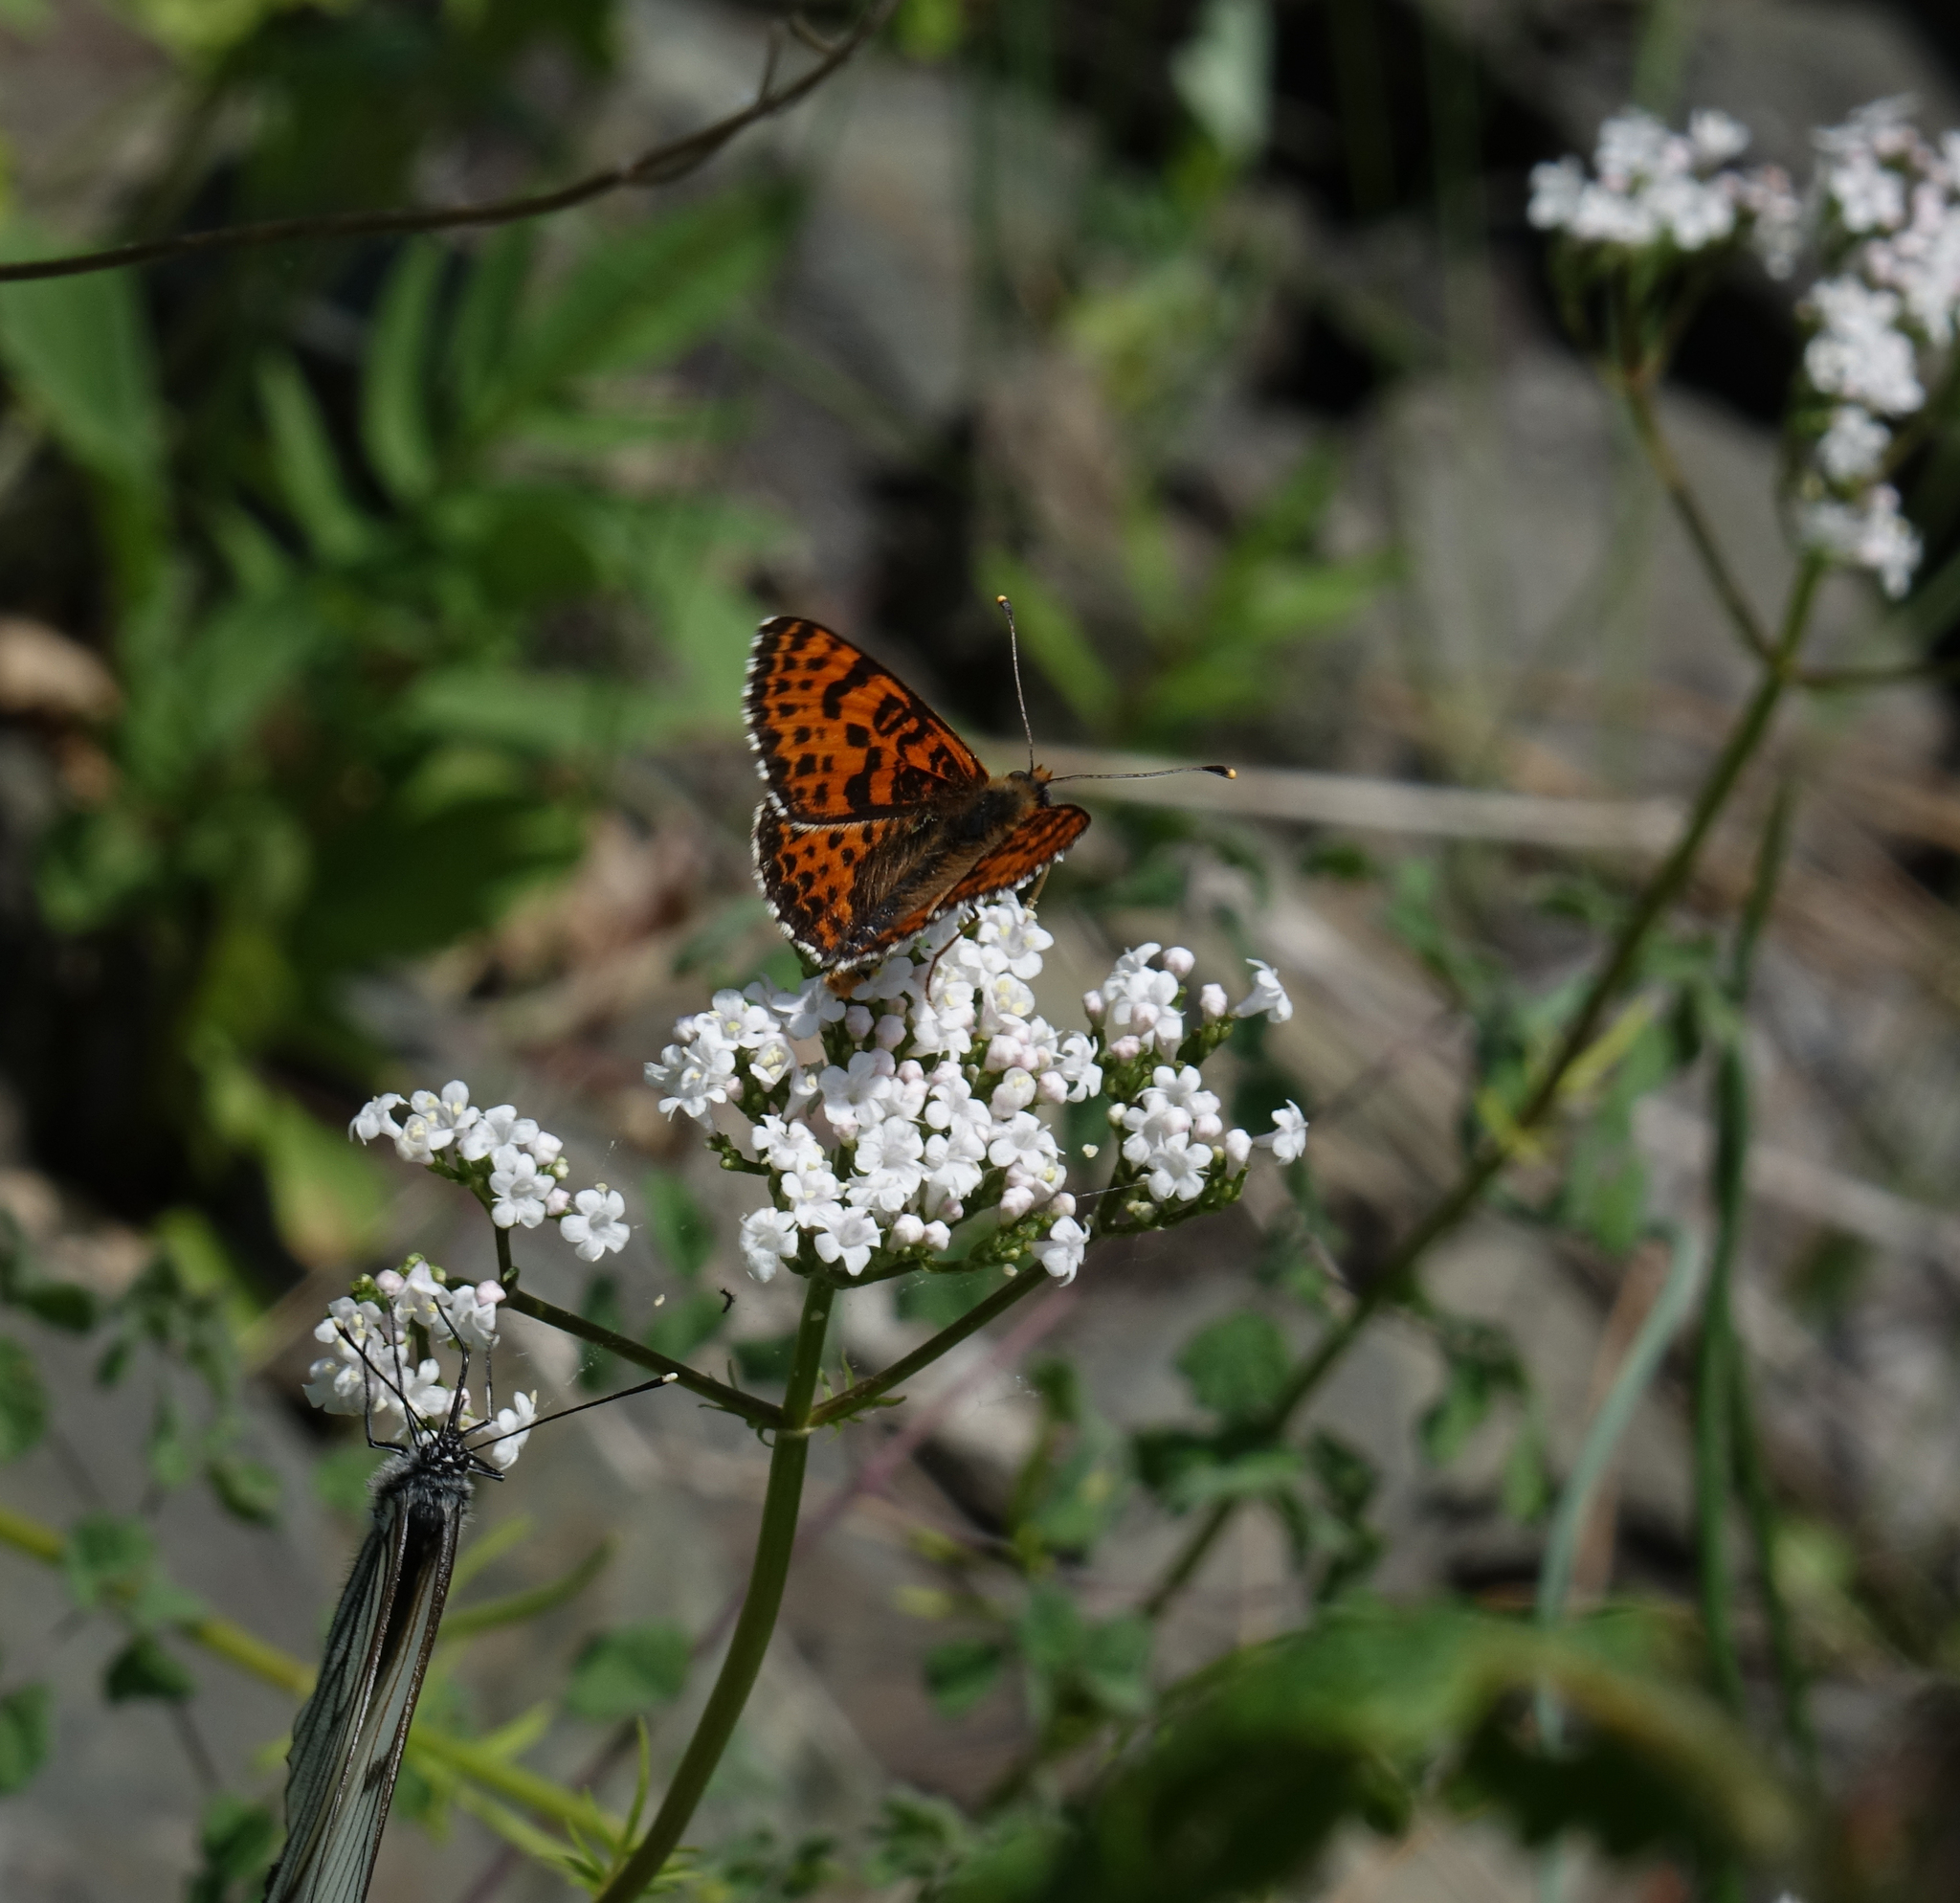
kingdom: Animalia
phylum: Arthropoda
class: Insecta
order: Lepidoptera
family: Nymphalidae
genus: Melitaea
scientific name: Melitaea didyma
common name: Spotted fritillary
